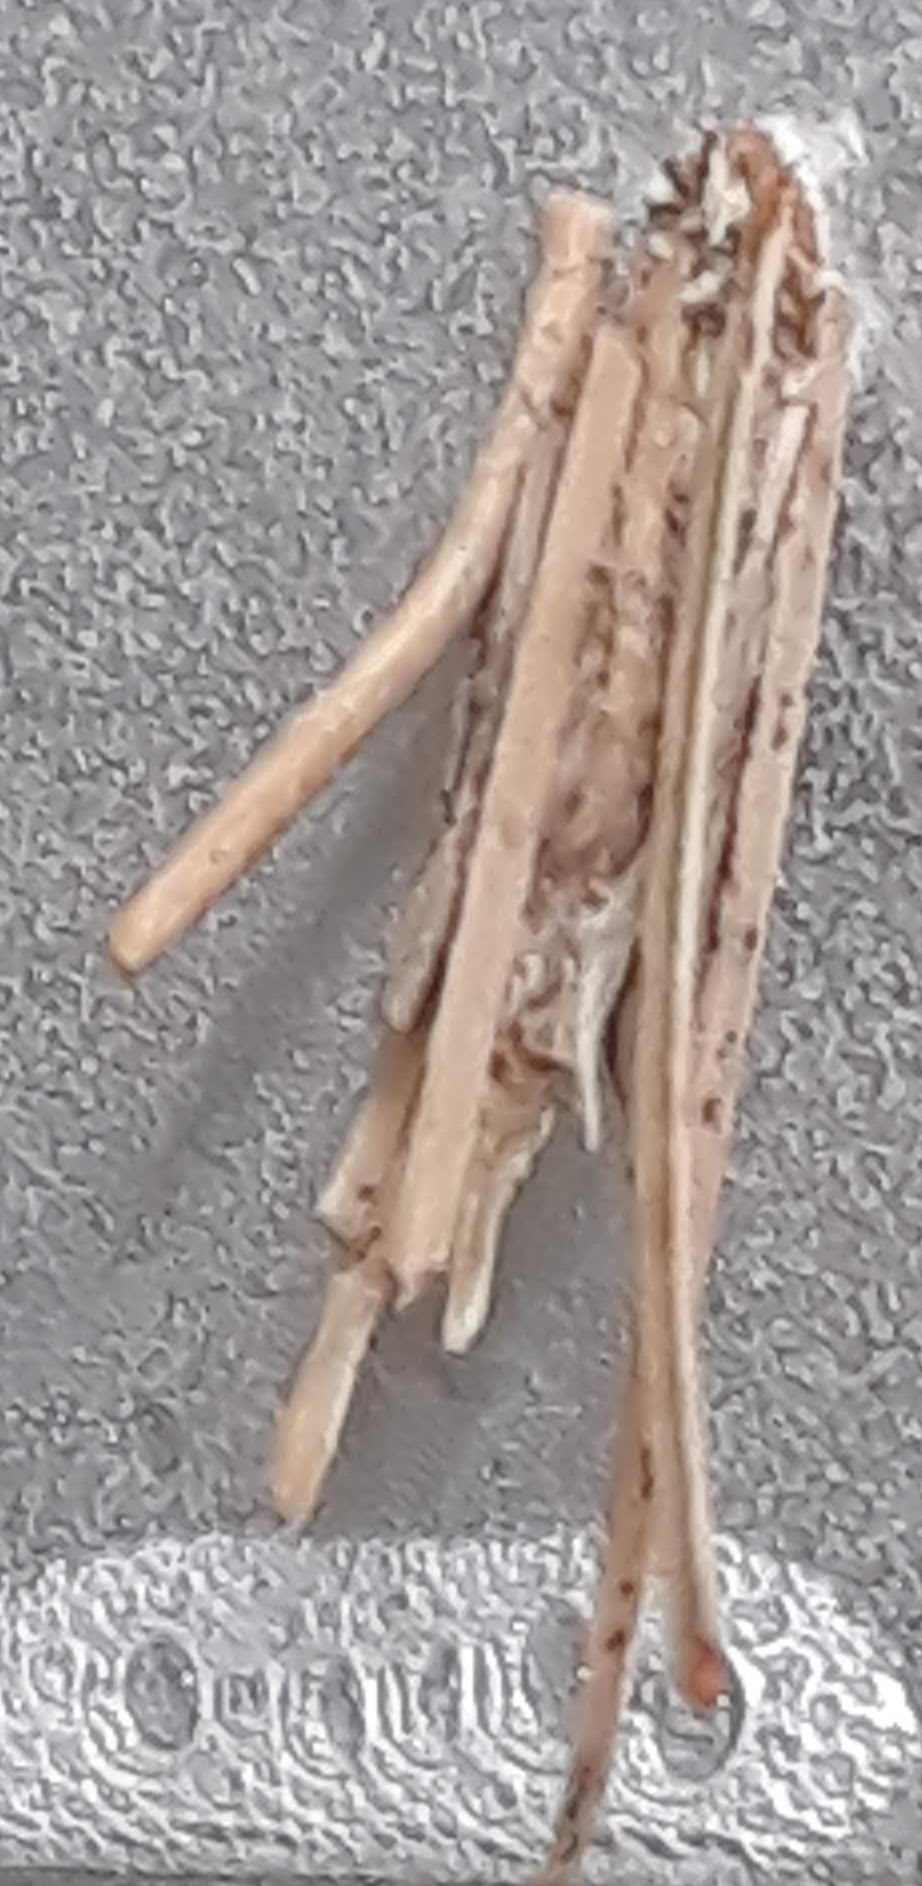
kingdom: Animalia
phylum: Arthropoda
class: Insecta
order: Lepidoptera
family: Psychidae
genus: Psyche
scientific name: Psyche casta
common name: Common sweep
